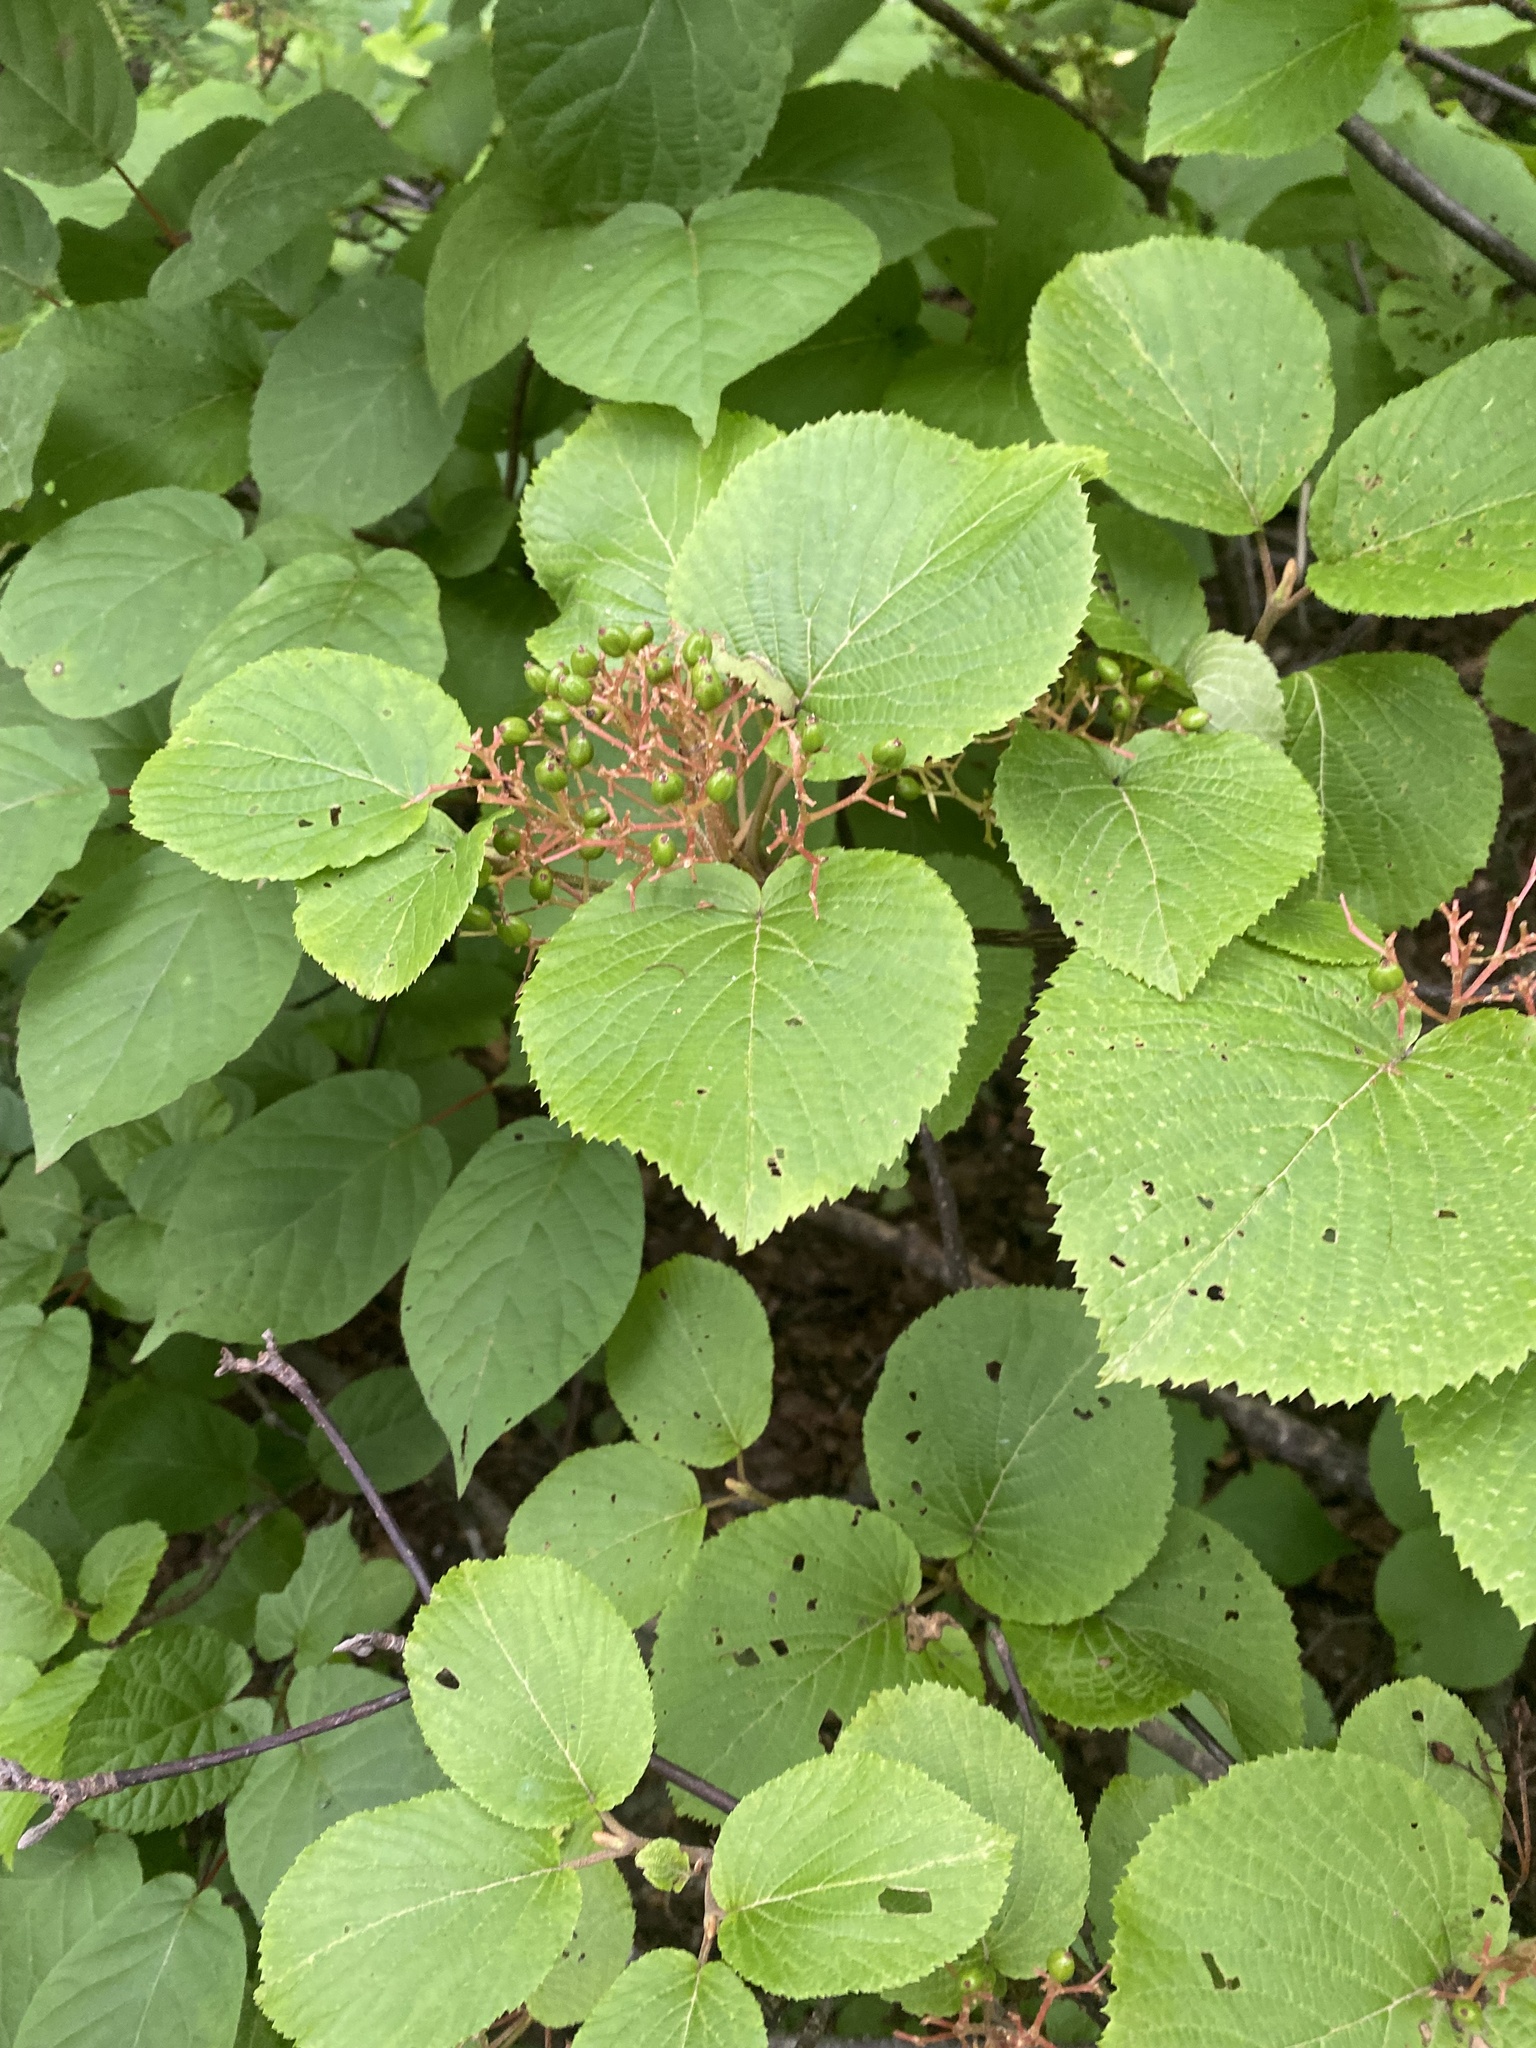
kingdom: Plantae
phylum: Tracheophyta
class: Magnoliopsida
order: Dipsacales
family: Viburnaceae
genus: Viburnum
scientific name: Viburnum furcatum
